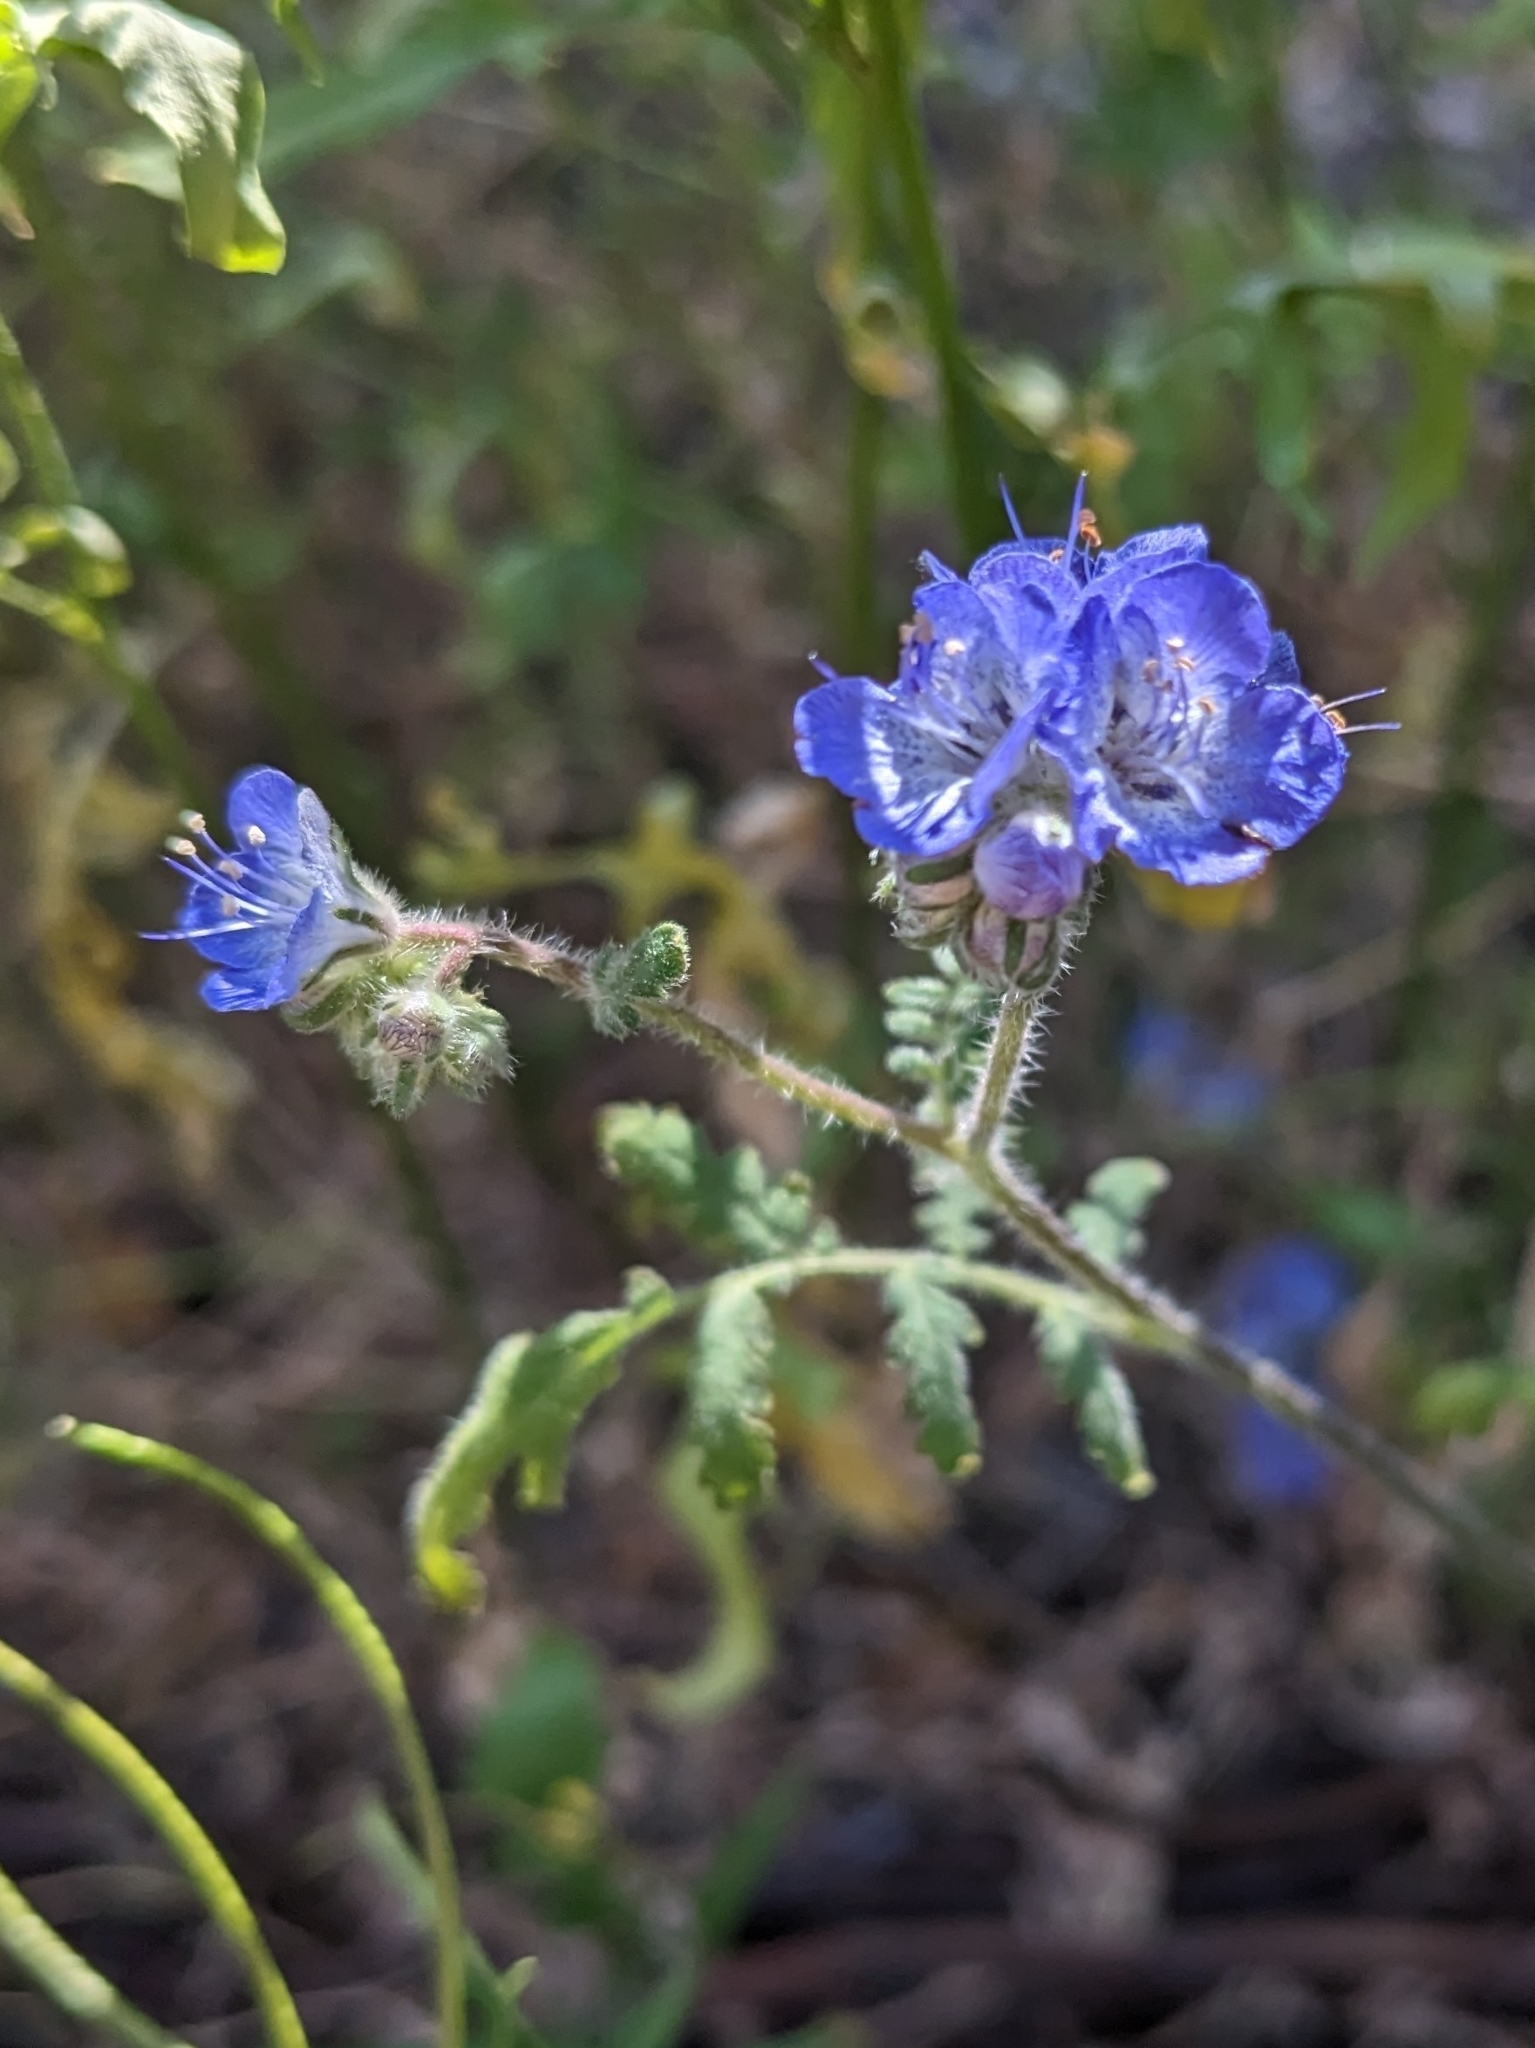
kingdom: Plantae
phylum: Tracheophyta
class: Magnoliopsida
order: Boraginales
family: Hydrophyllaceae
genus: Phacelia
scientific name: Phacelia distans
